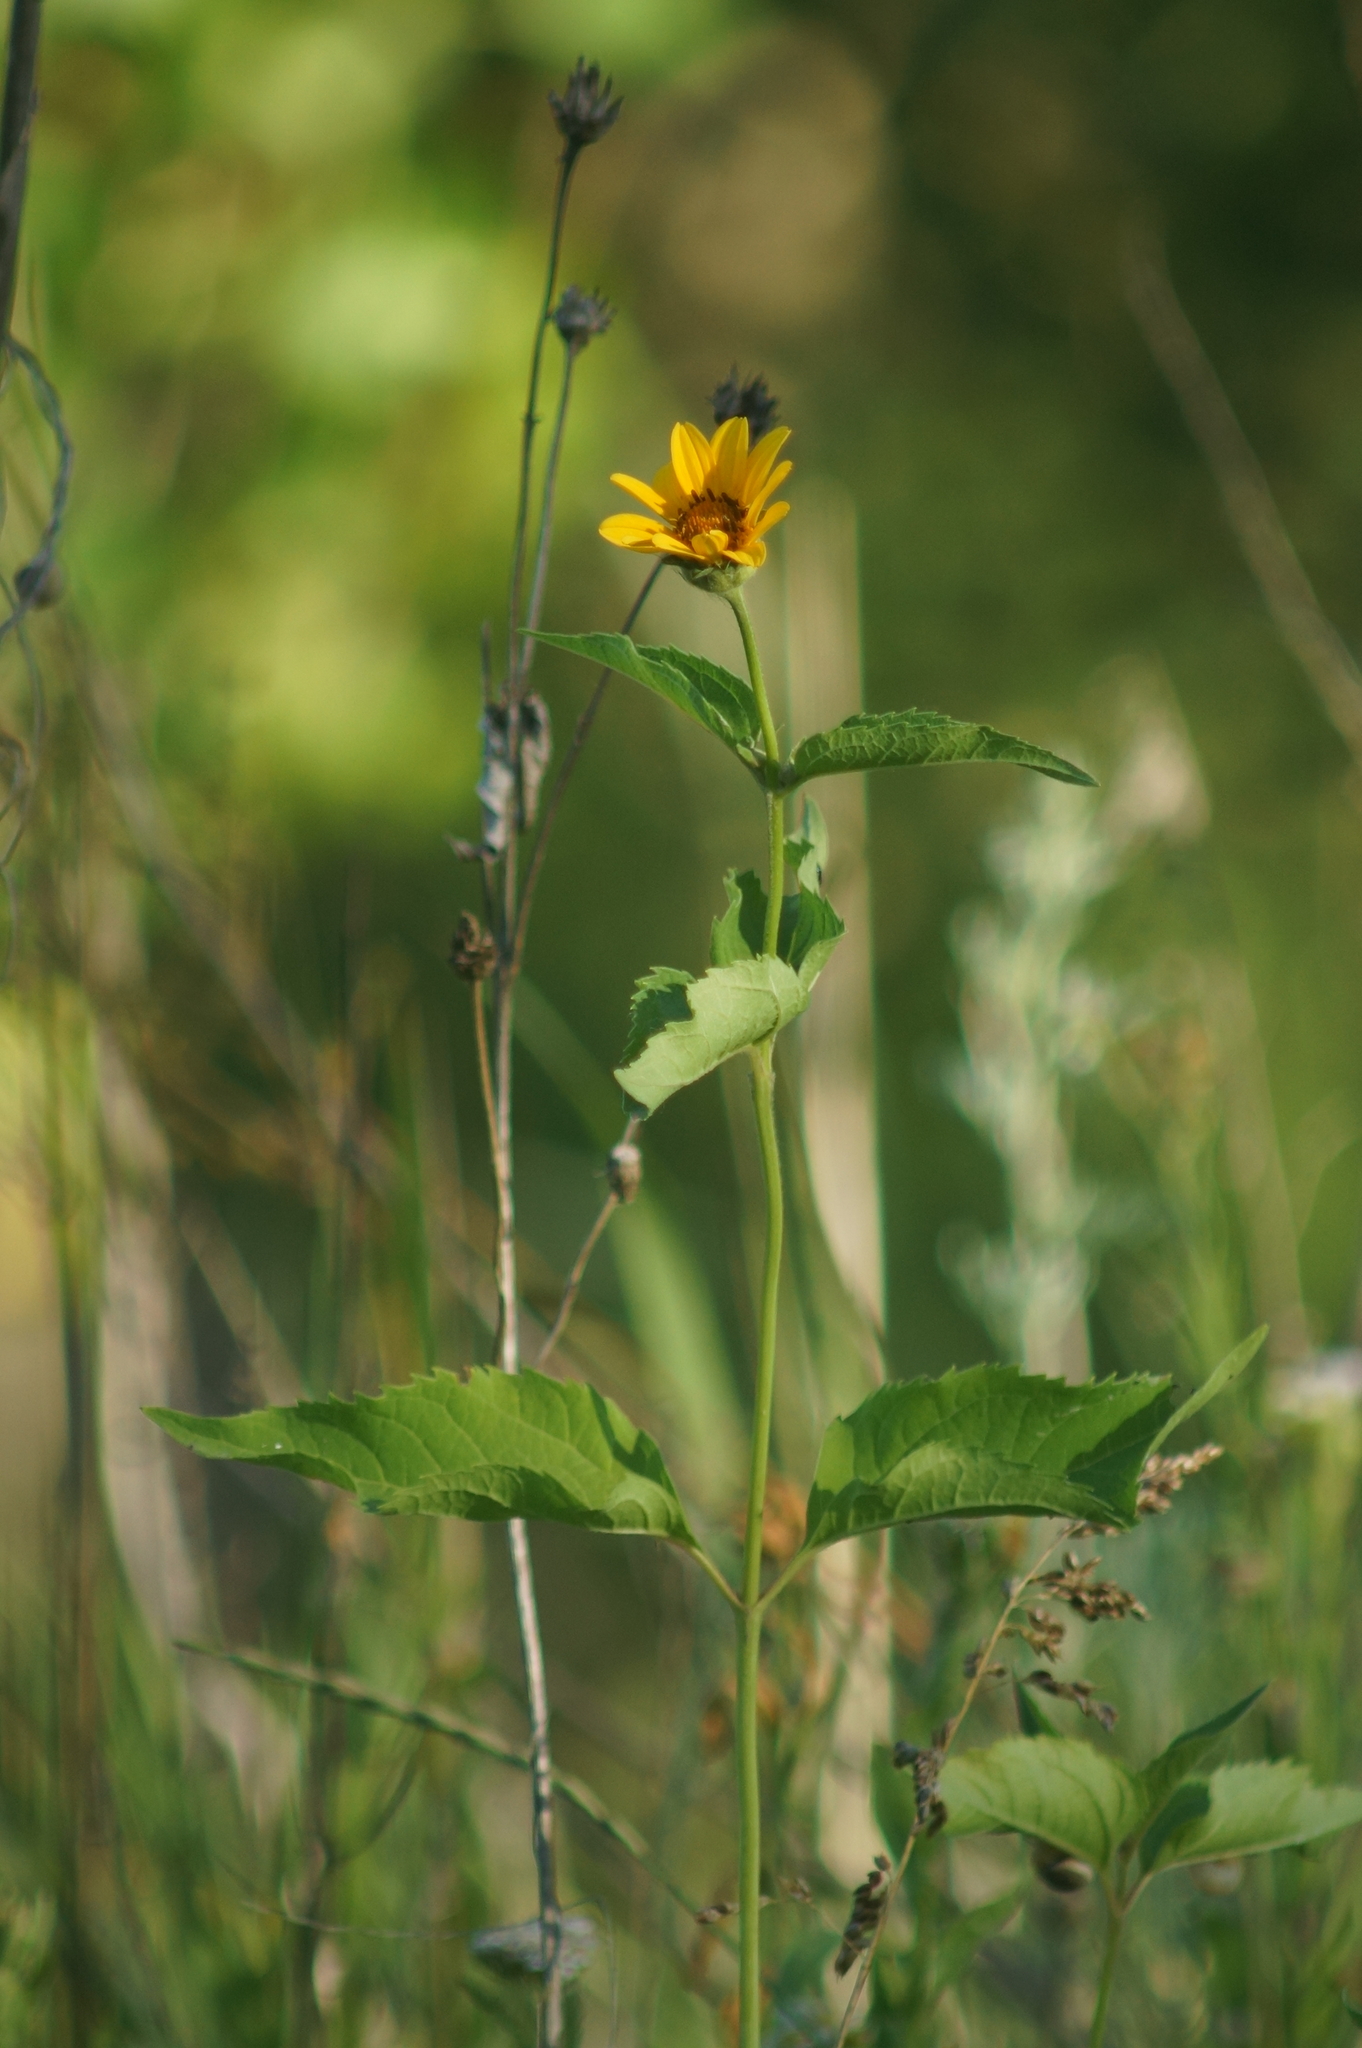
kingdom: Plantae
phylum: Tracheophyta
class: Magnoliopsida
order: Asterales
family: Asteraceae
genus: Heliopsis
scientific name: Heliopsis helianthoides
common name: False sunflower
